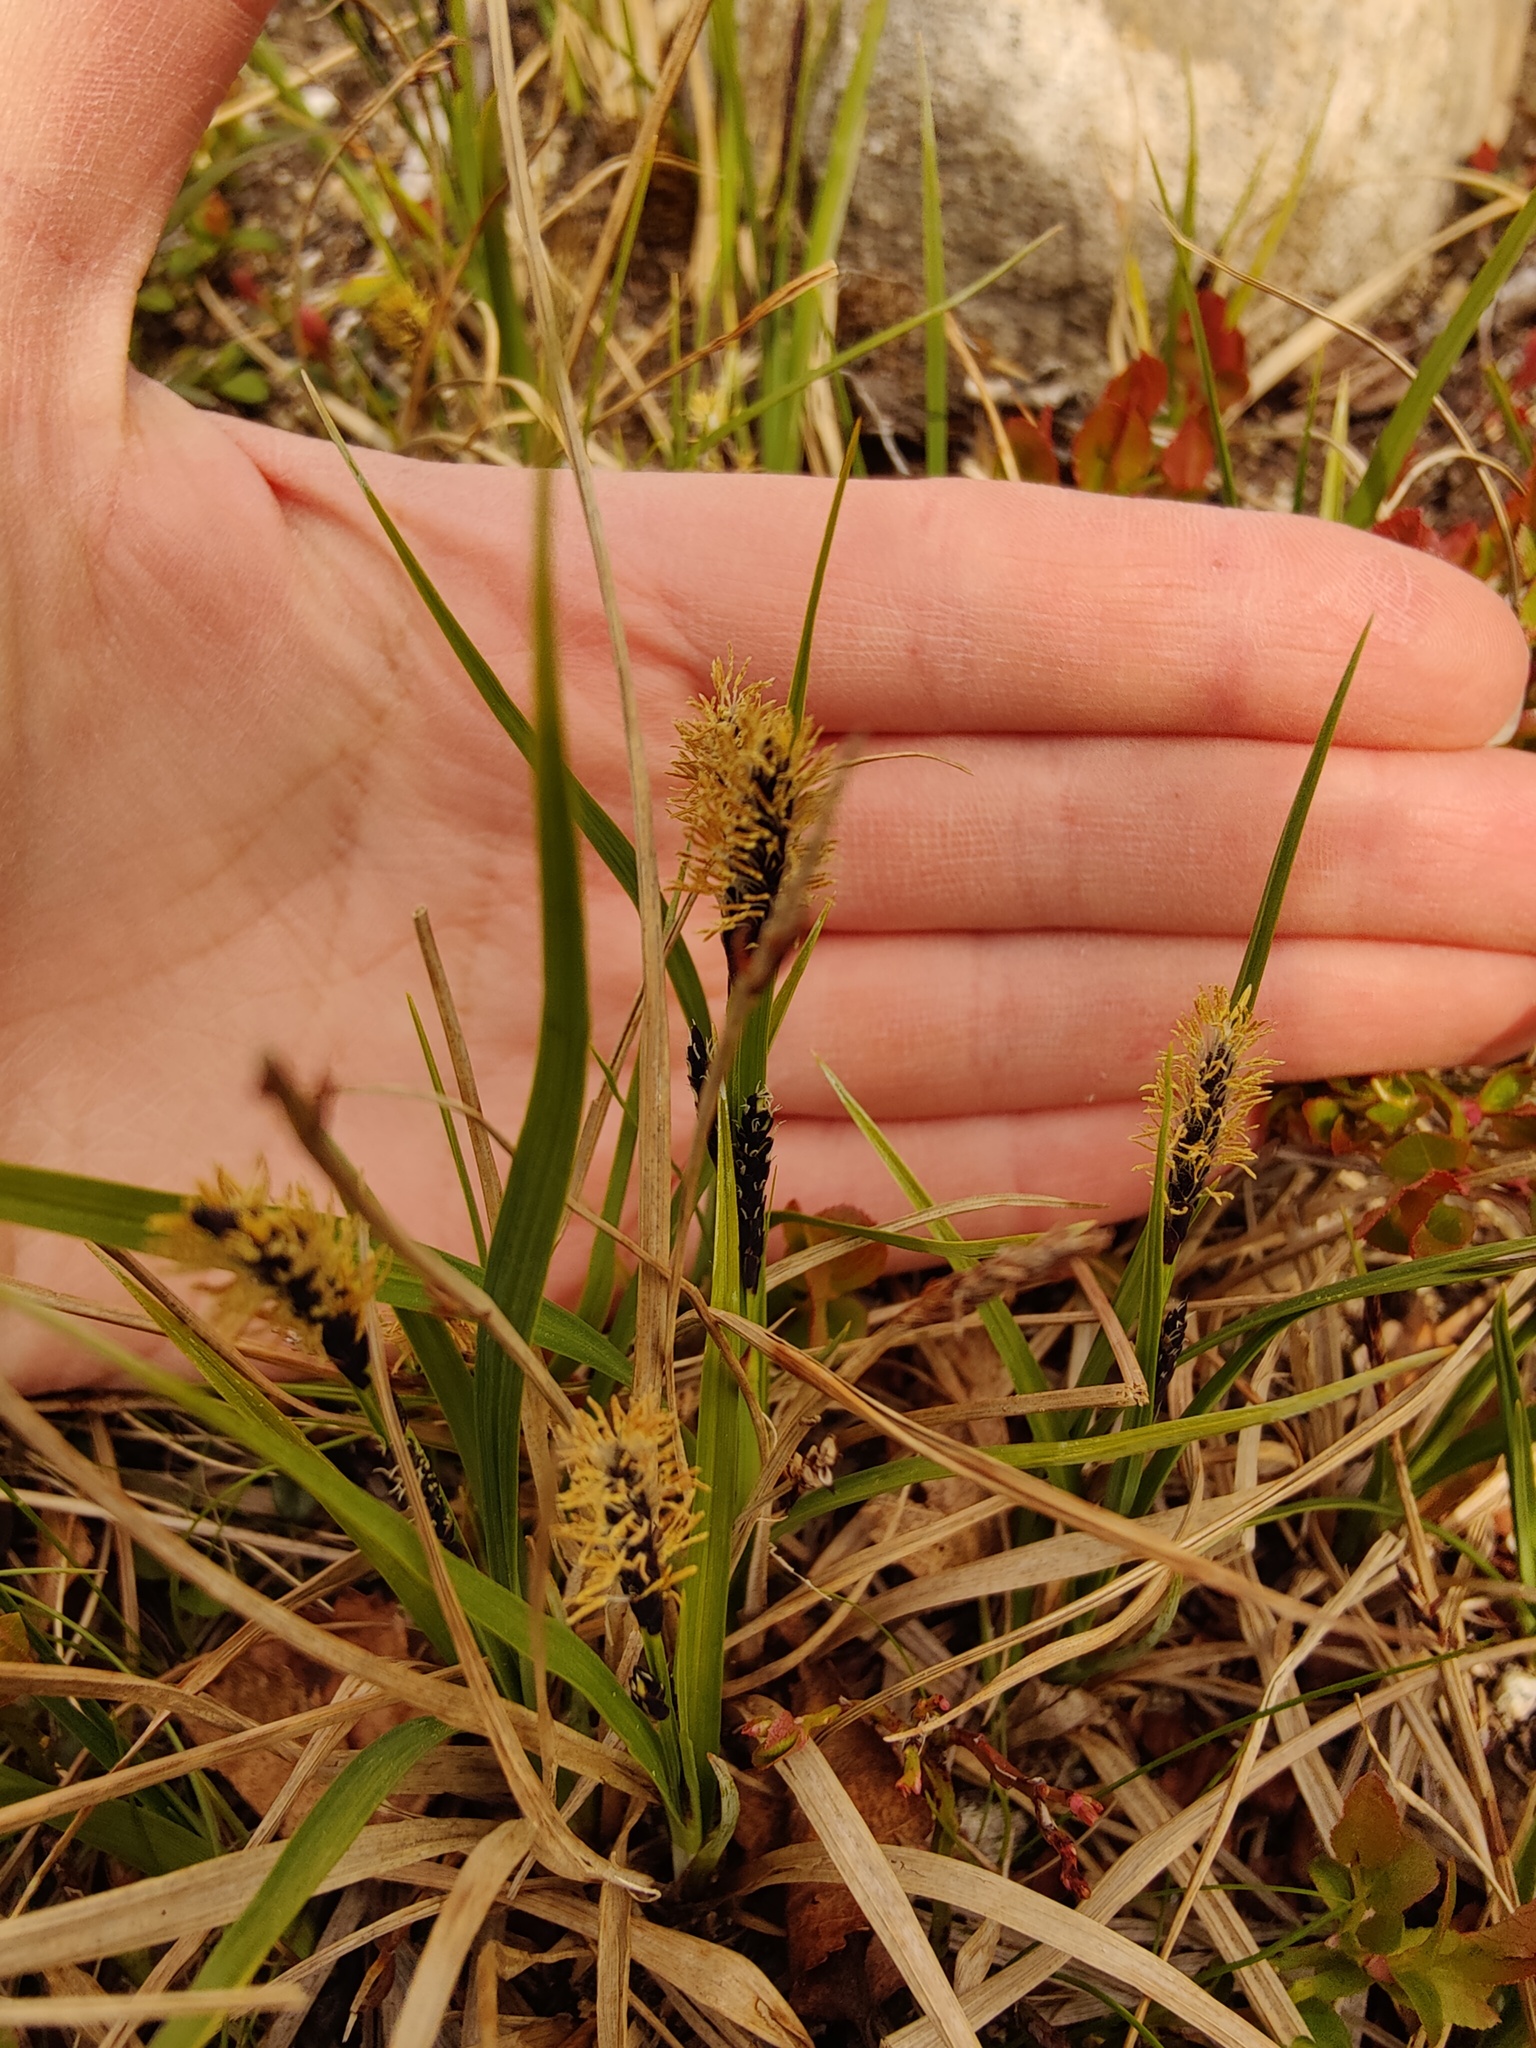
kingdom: Plantae
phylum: Tracheophyta
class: Liliopsida
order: Poales
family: Cyperaceae
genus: Carex
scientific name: Carex bigelowii
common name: Stiff sedge
